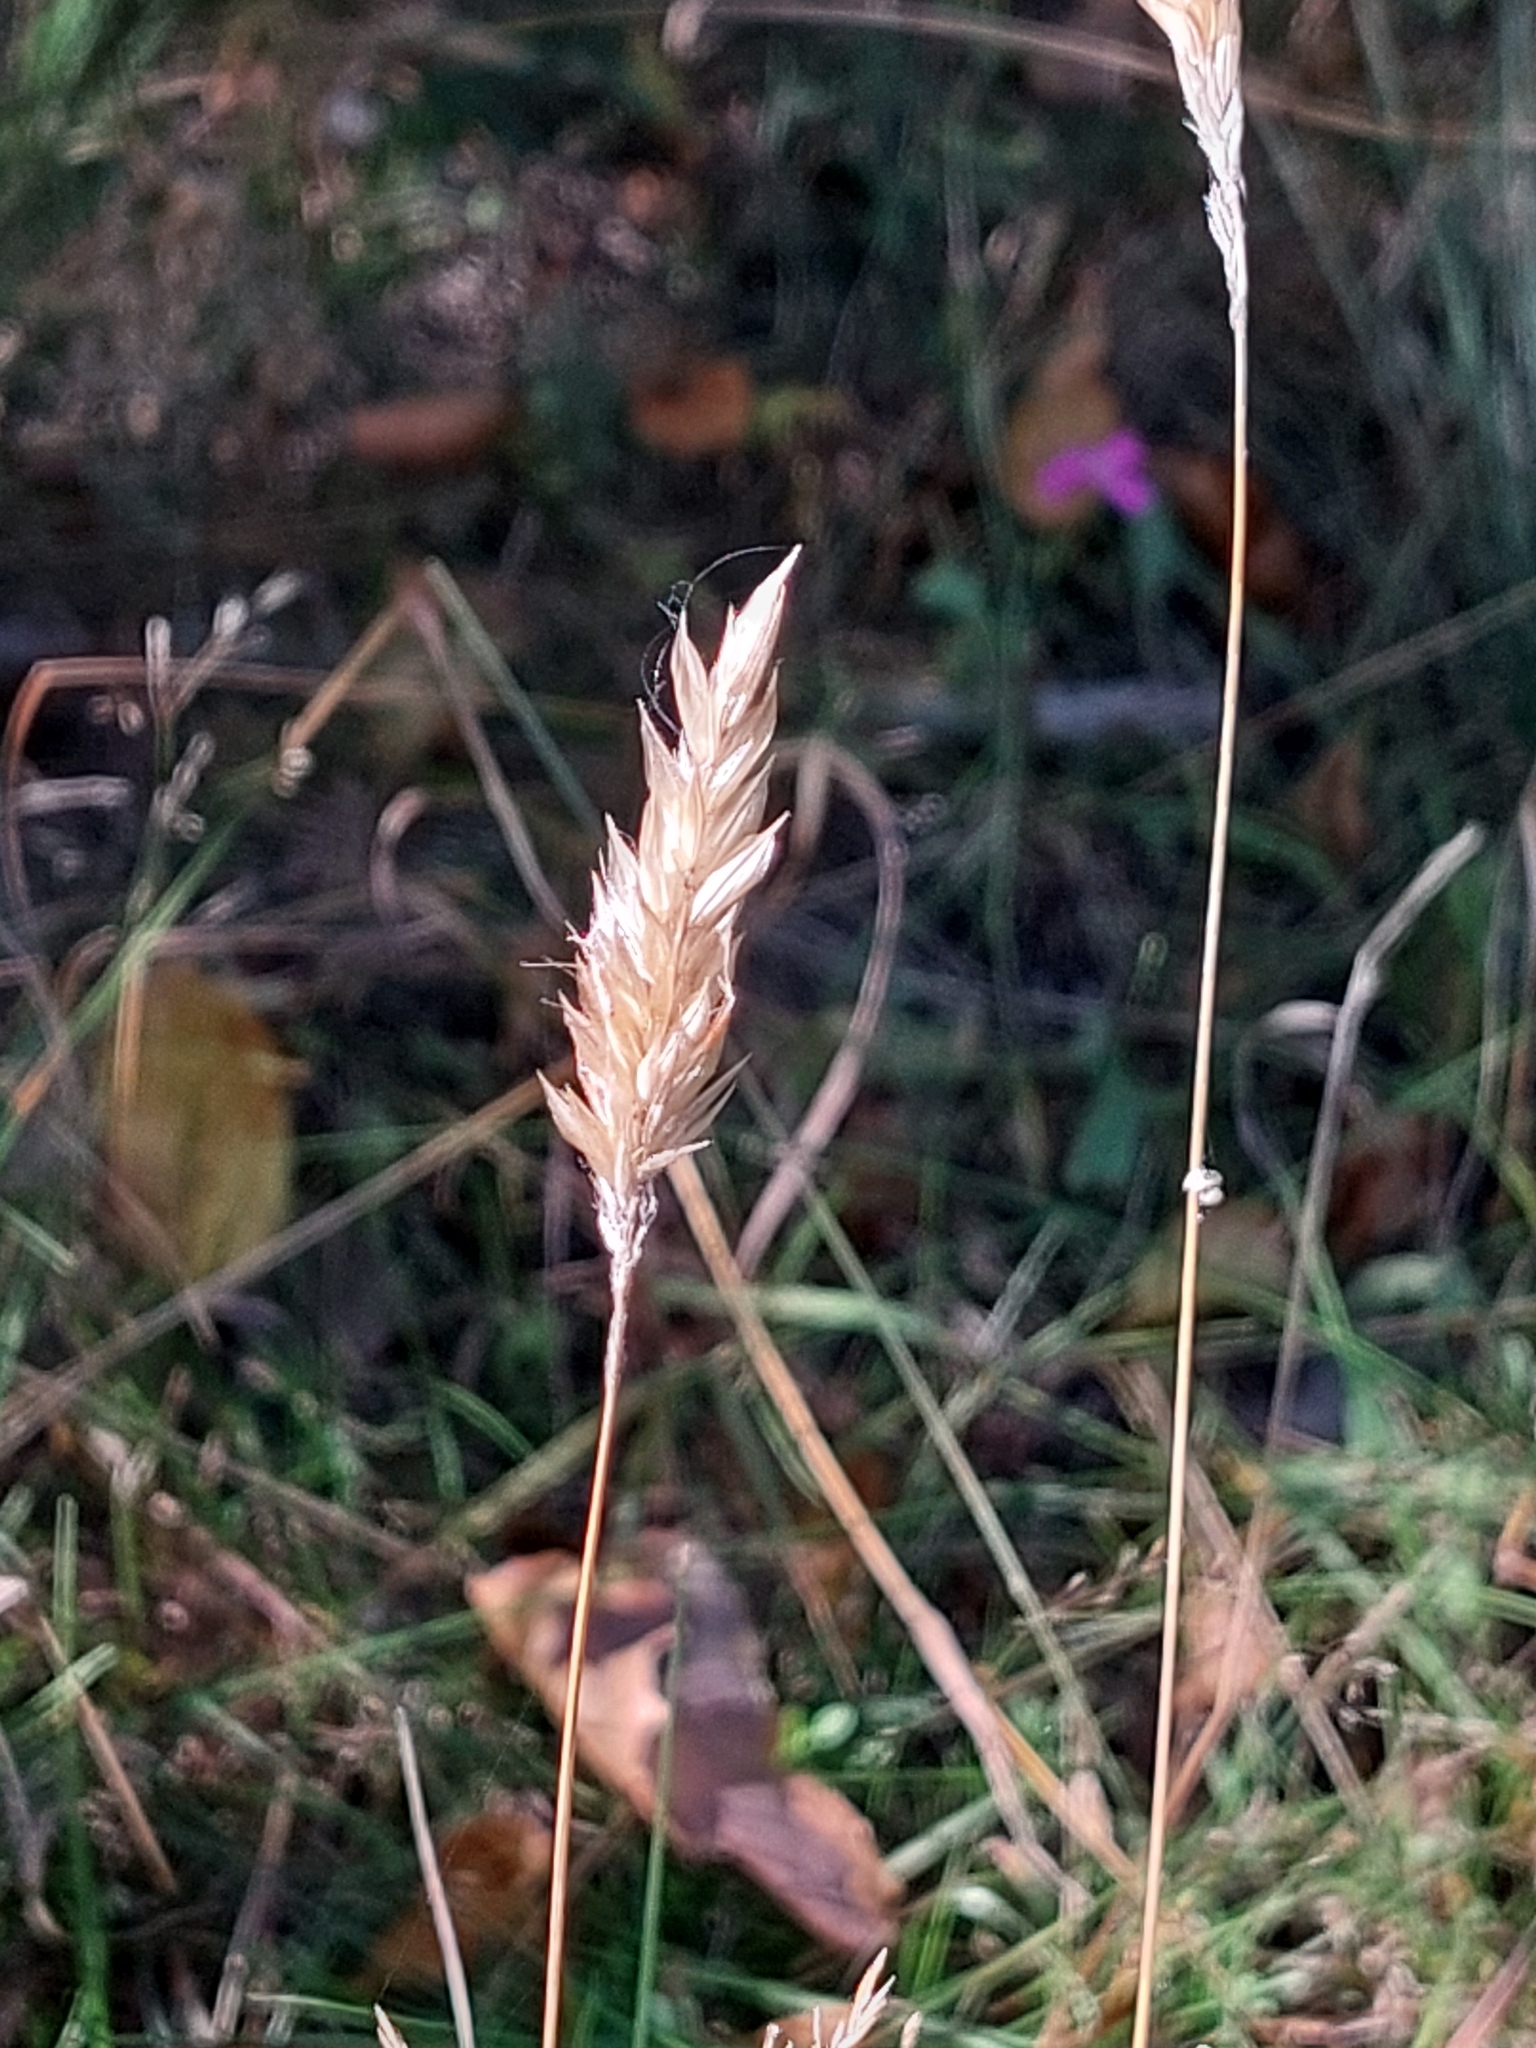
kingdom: Plantae
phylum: Tracheophyta
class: Liliopsida
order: Poales
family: Poaceae
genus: Anthoxanthum
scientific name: Anthoxanthum odoratum
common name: Sweet vernalgrass
